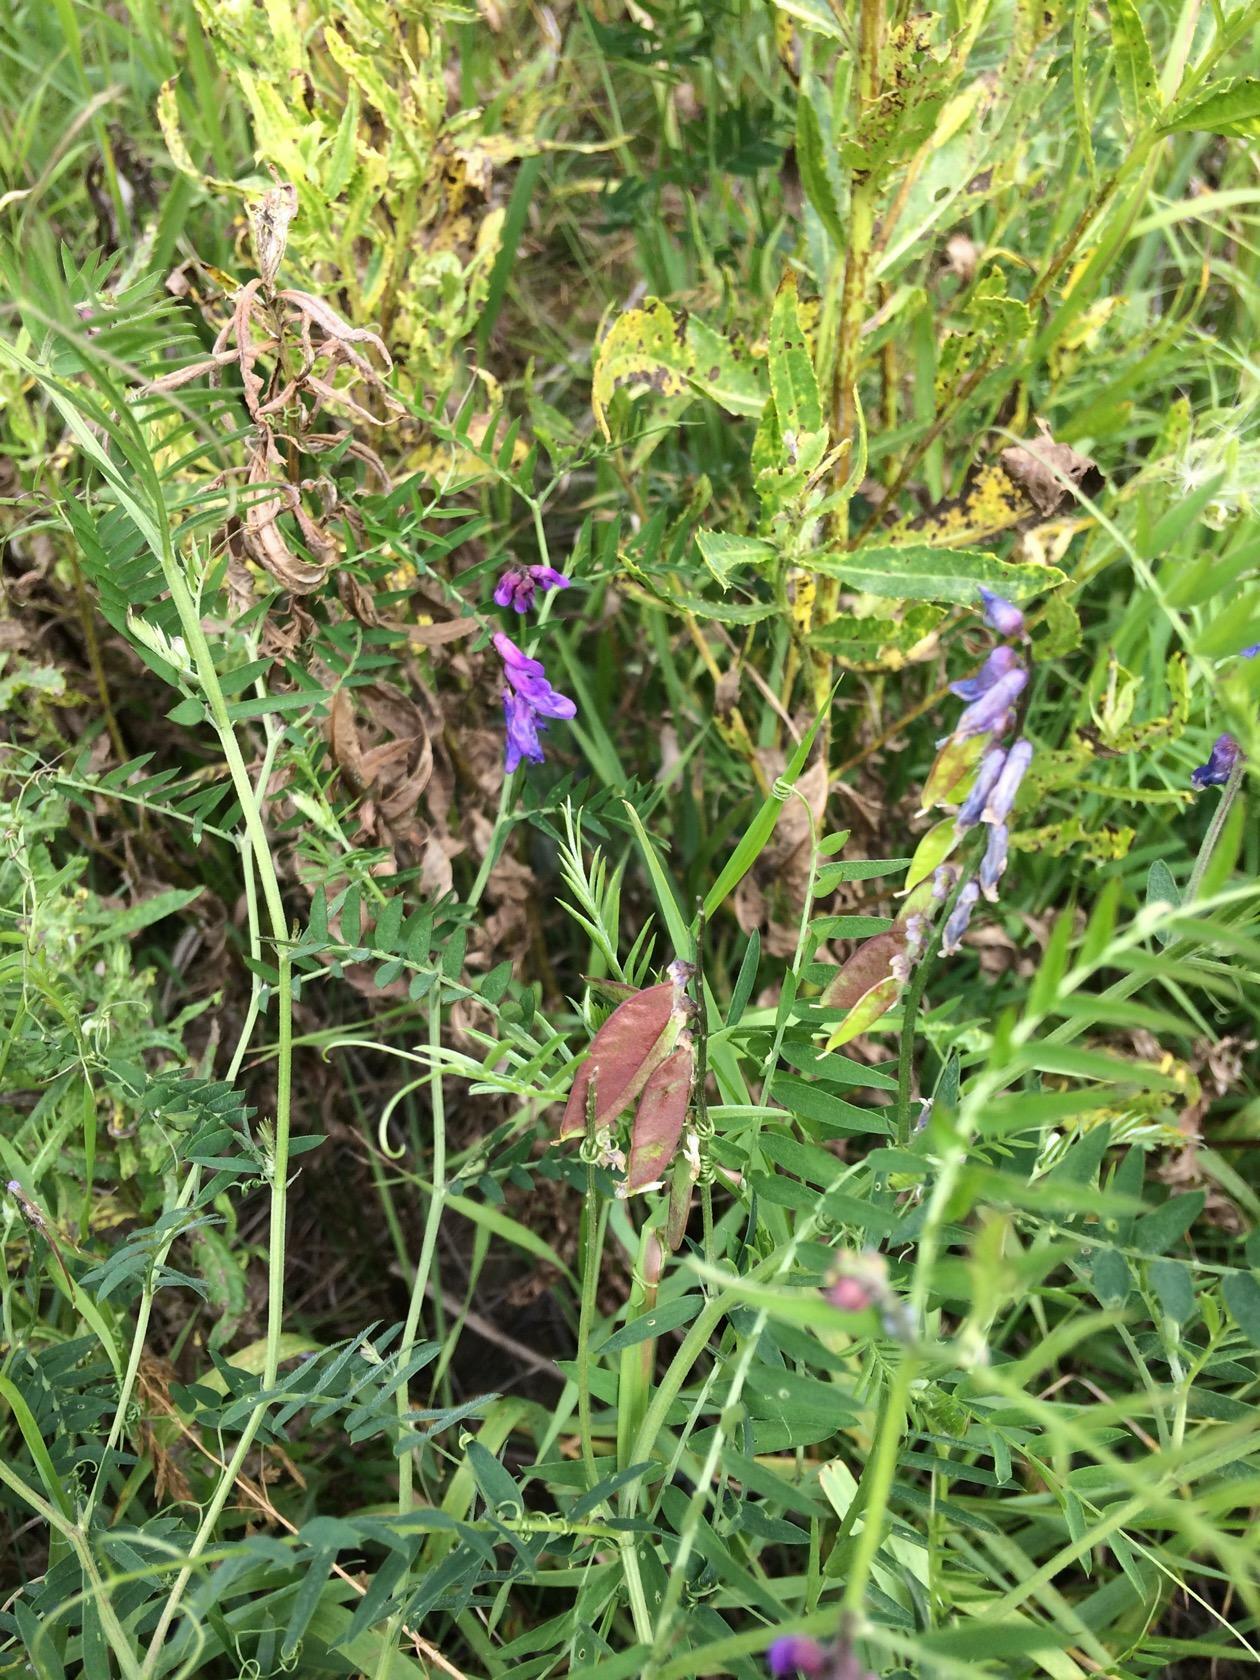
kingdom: Plantae
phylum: Tracheophyta
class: Magnoliopsida
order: Fabales
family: Fabaceae
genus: Vicia
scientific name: Vicia cracca
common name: Bird vetch
